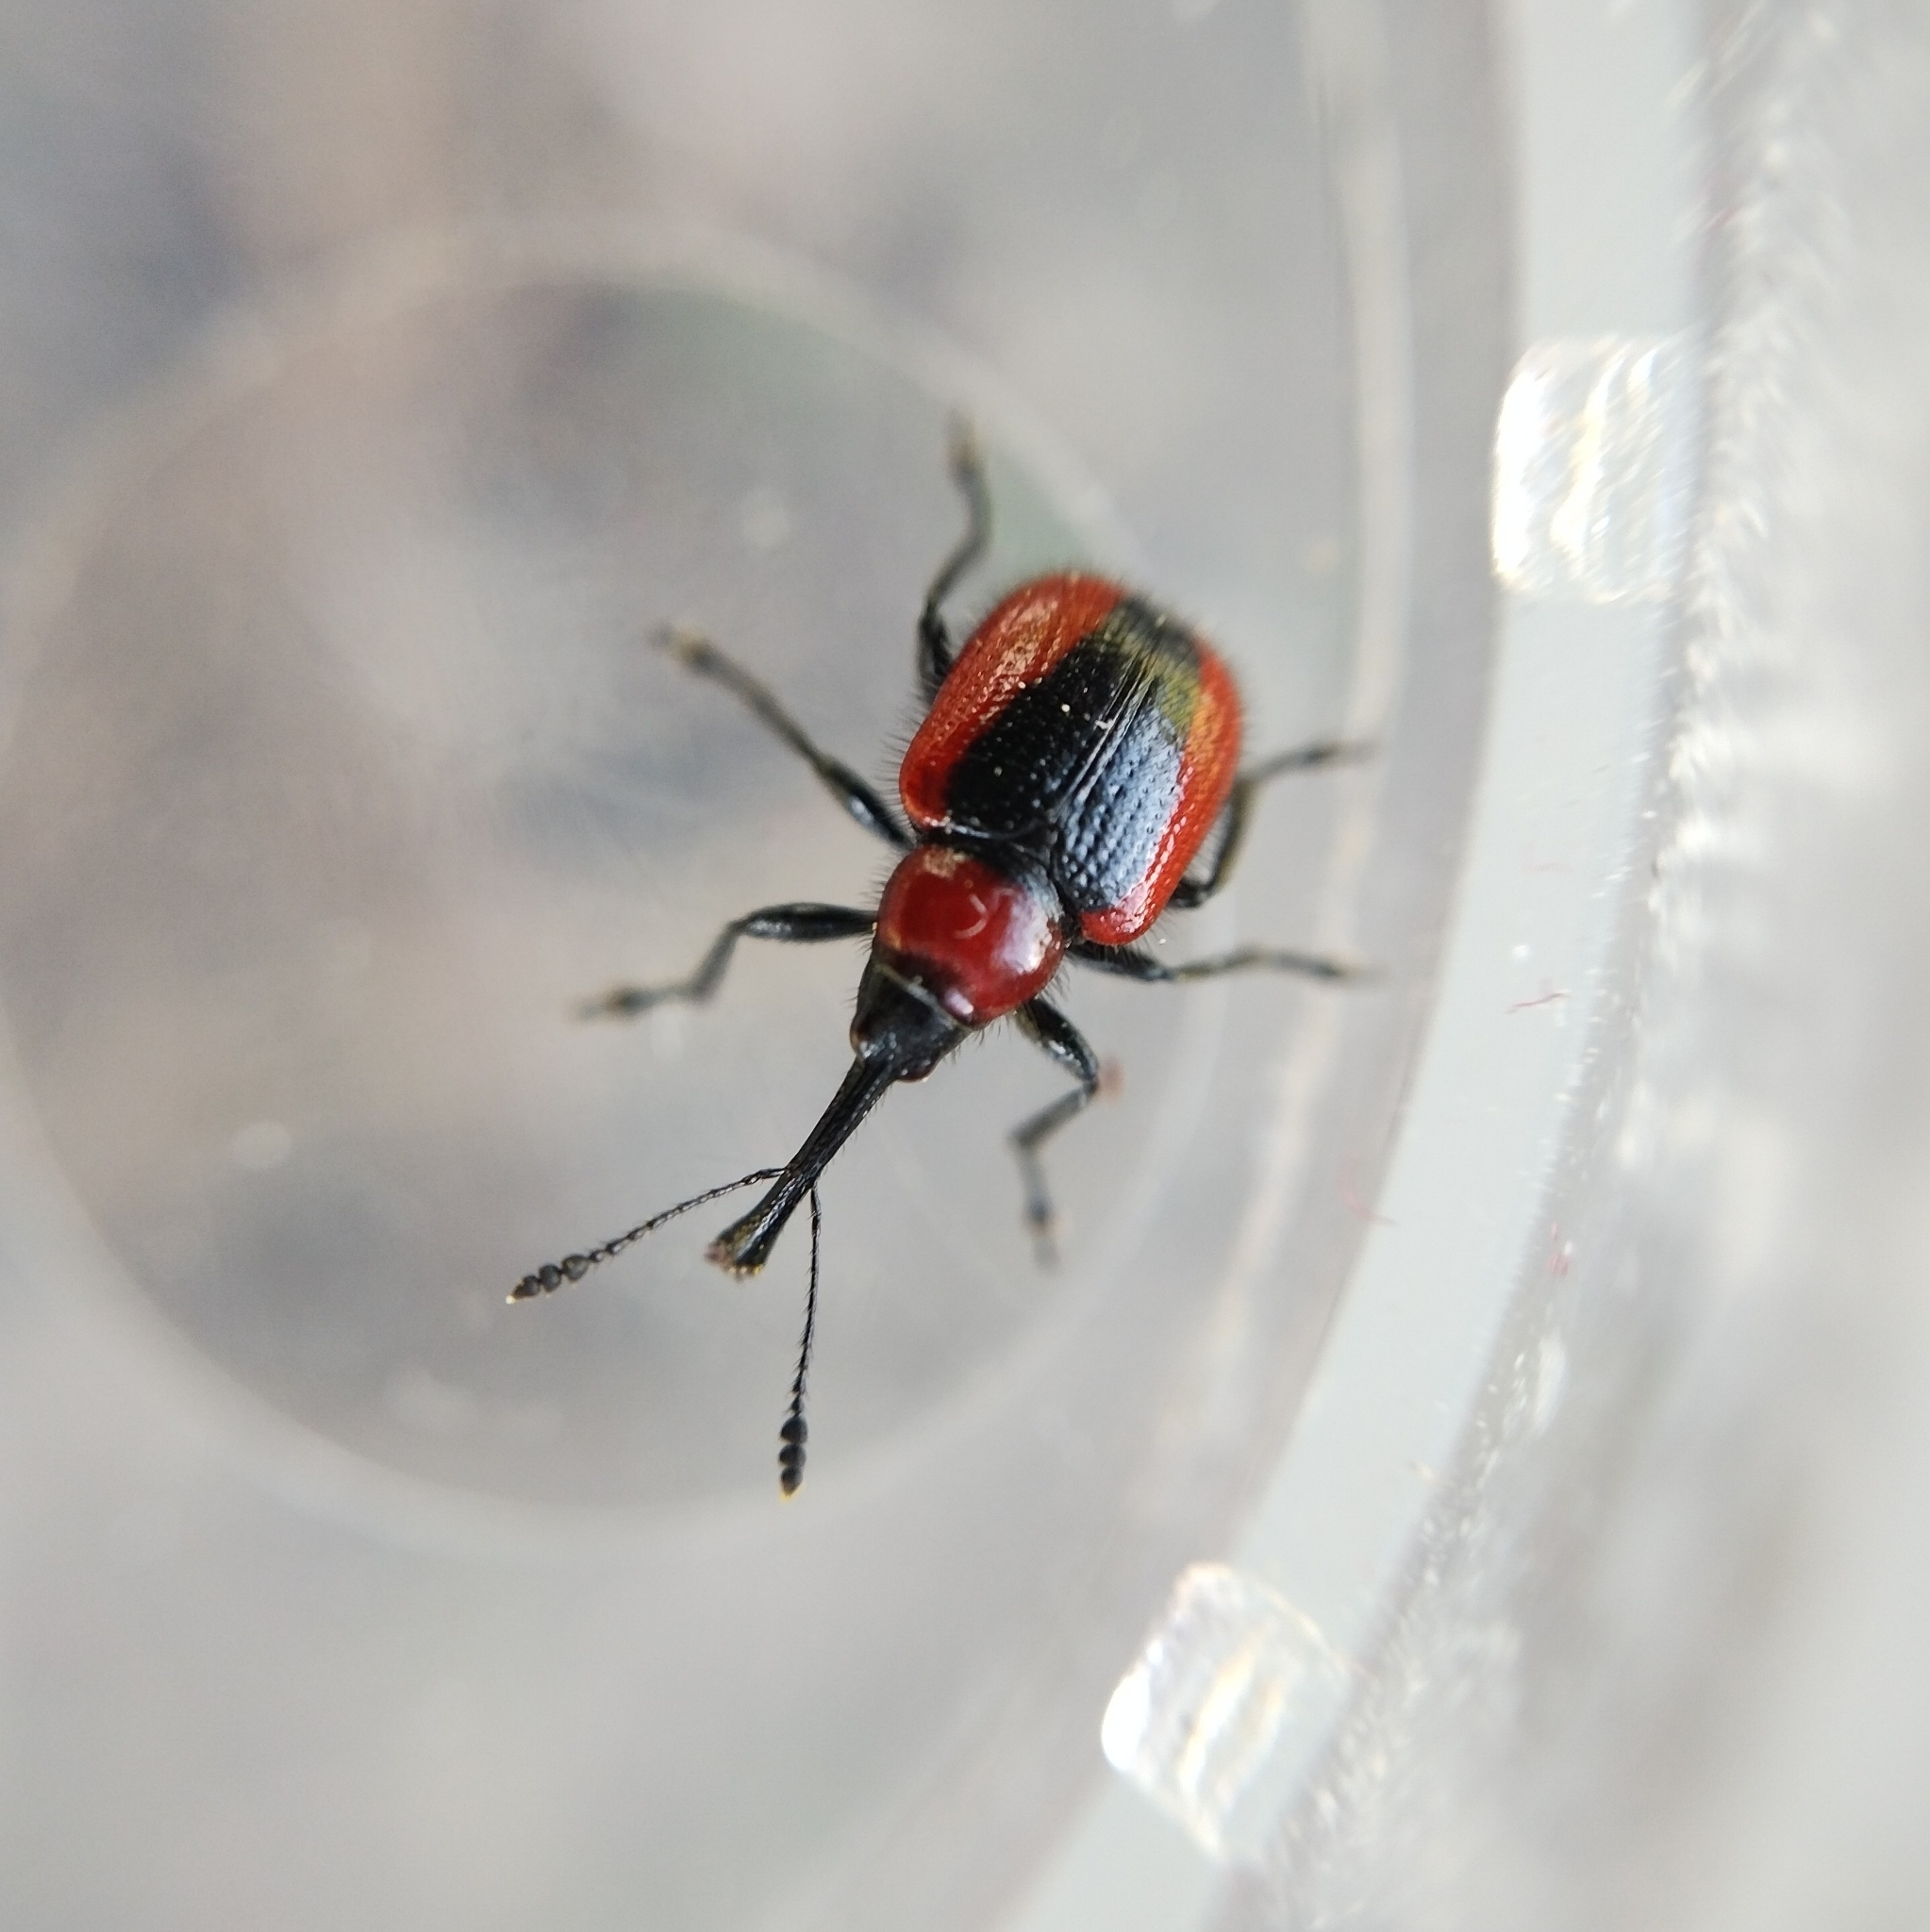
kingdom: Animalia
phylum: Arthropoda
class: Insecta
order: Coleoptera
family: Attelabidae
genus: Mecorhis
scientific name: Mecorhis ungarica
